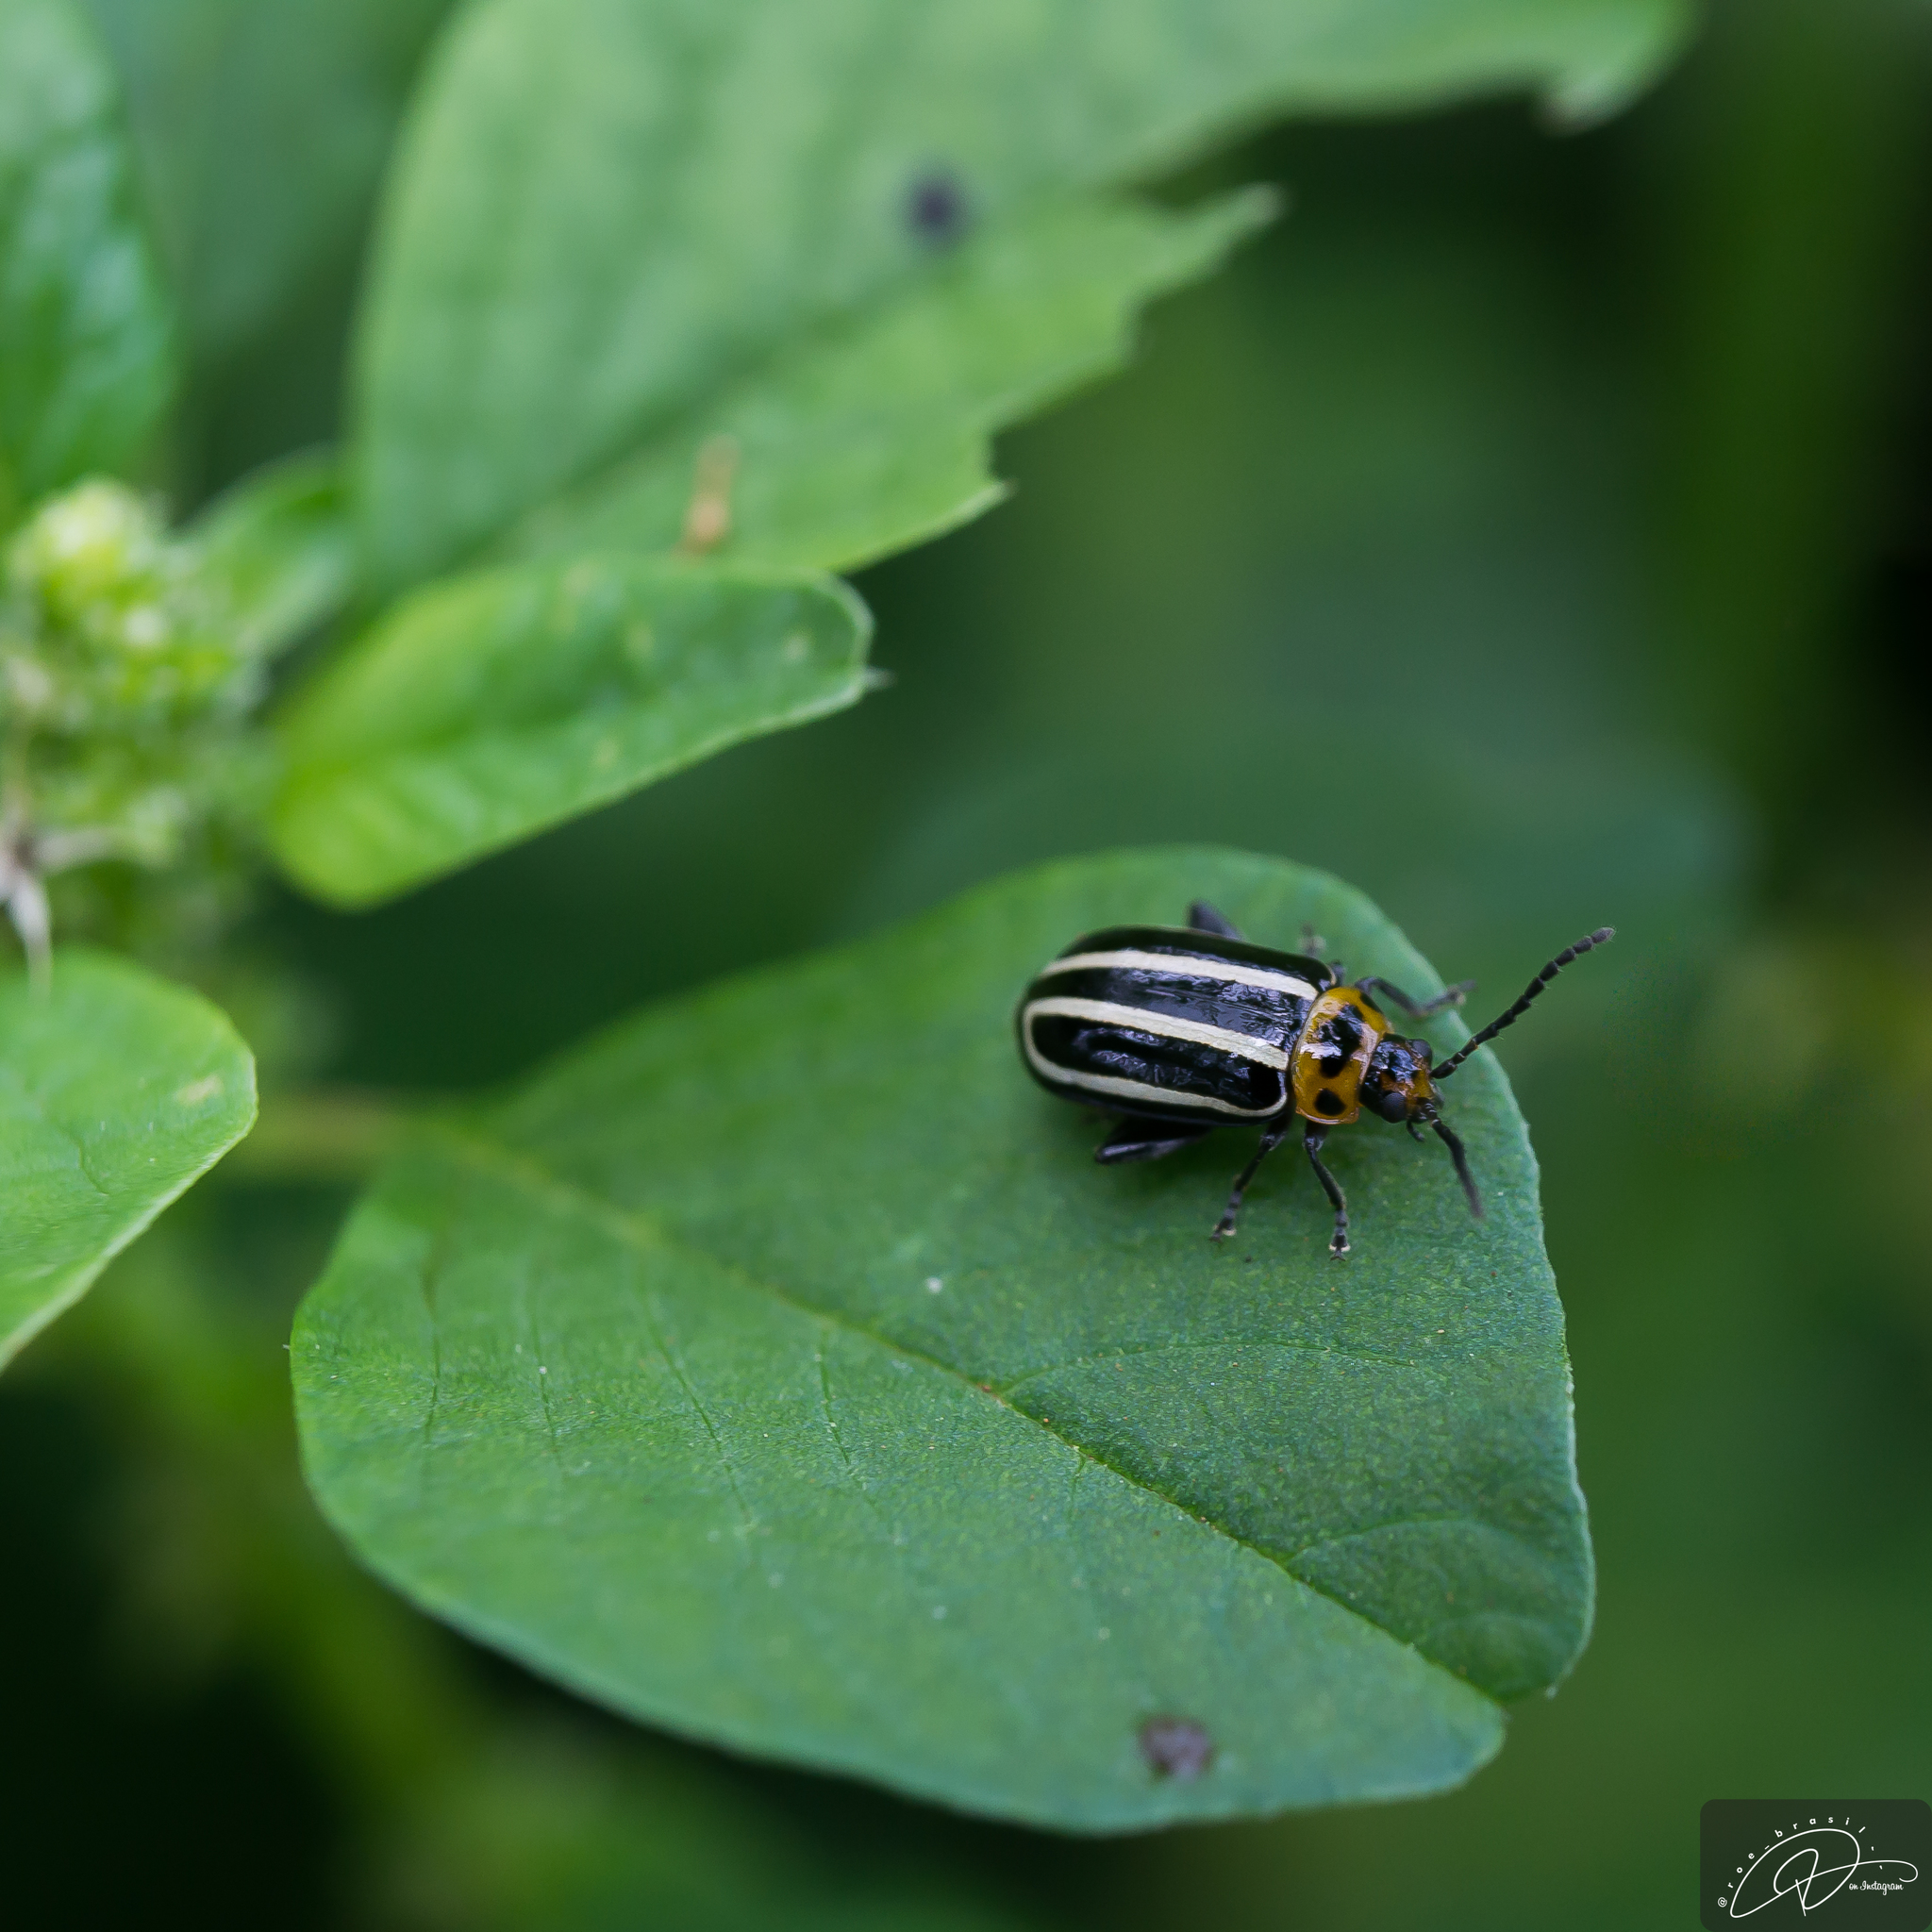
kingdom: Animalia
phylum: Arthropoda
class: Insecta
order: Coleoptera
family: Chrysomelidae
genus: Disonycha
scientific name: Disonycha
